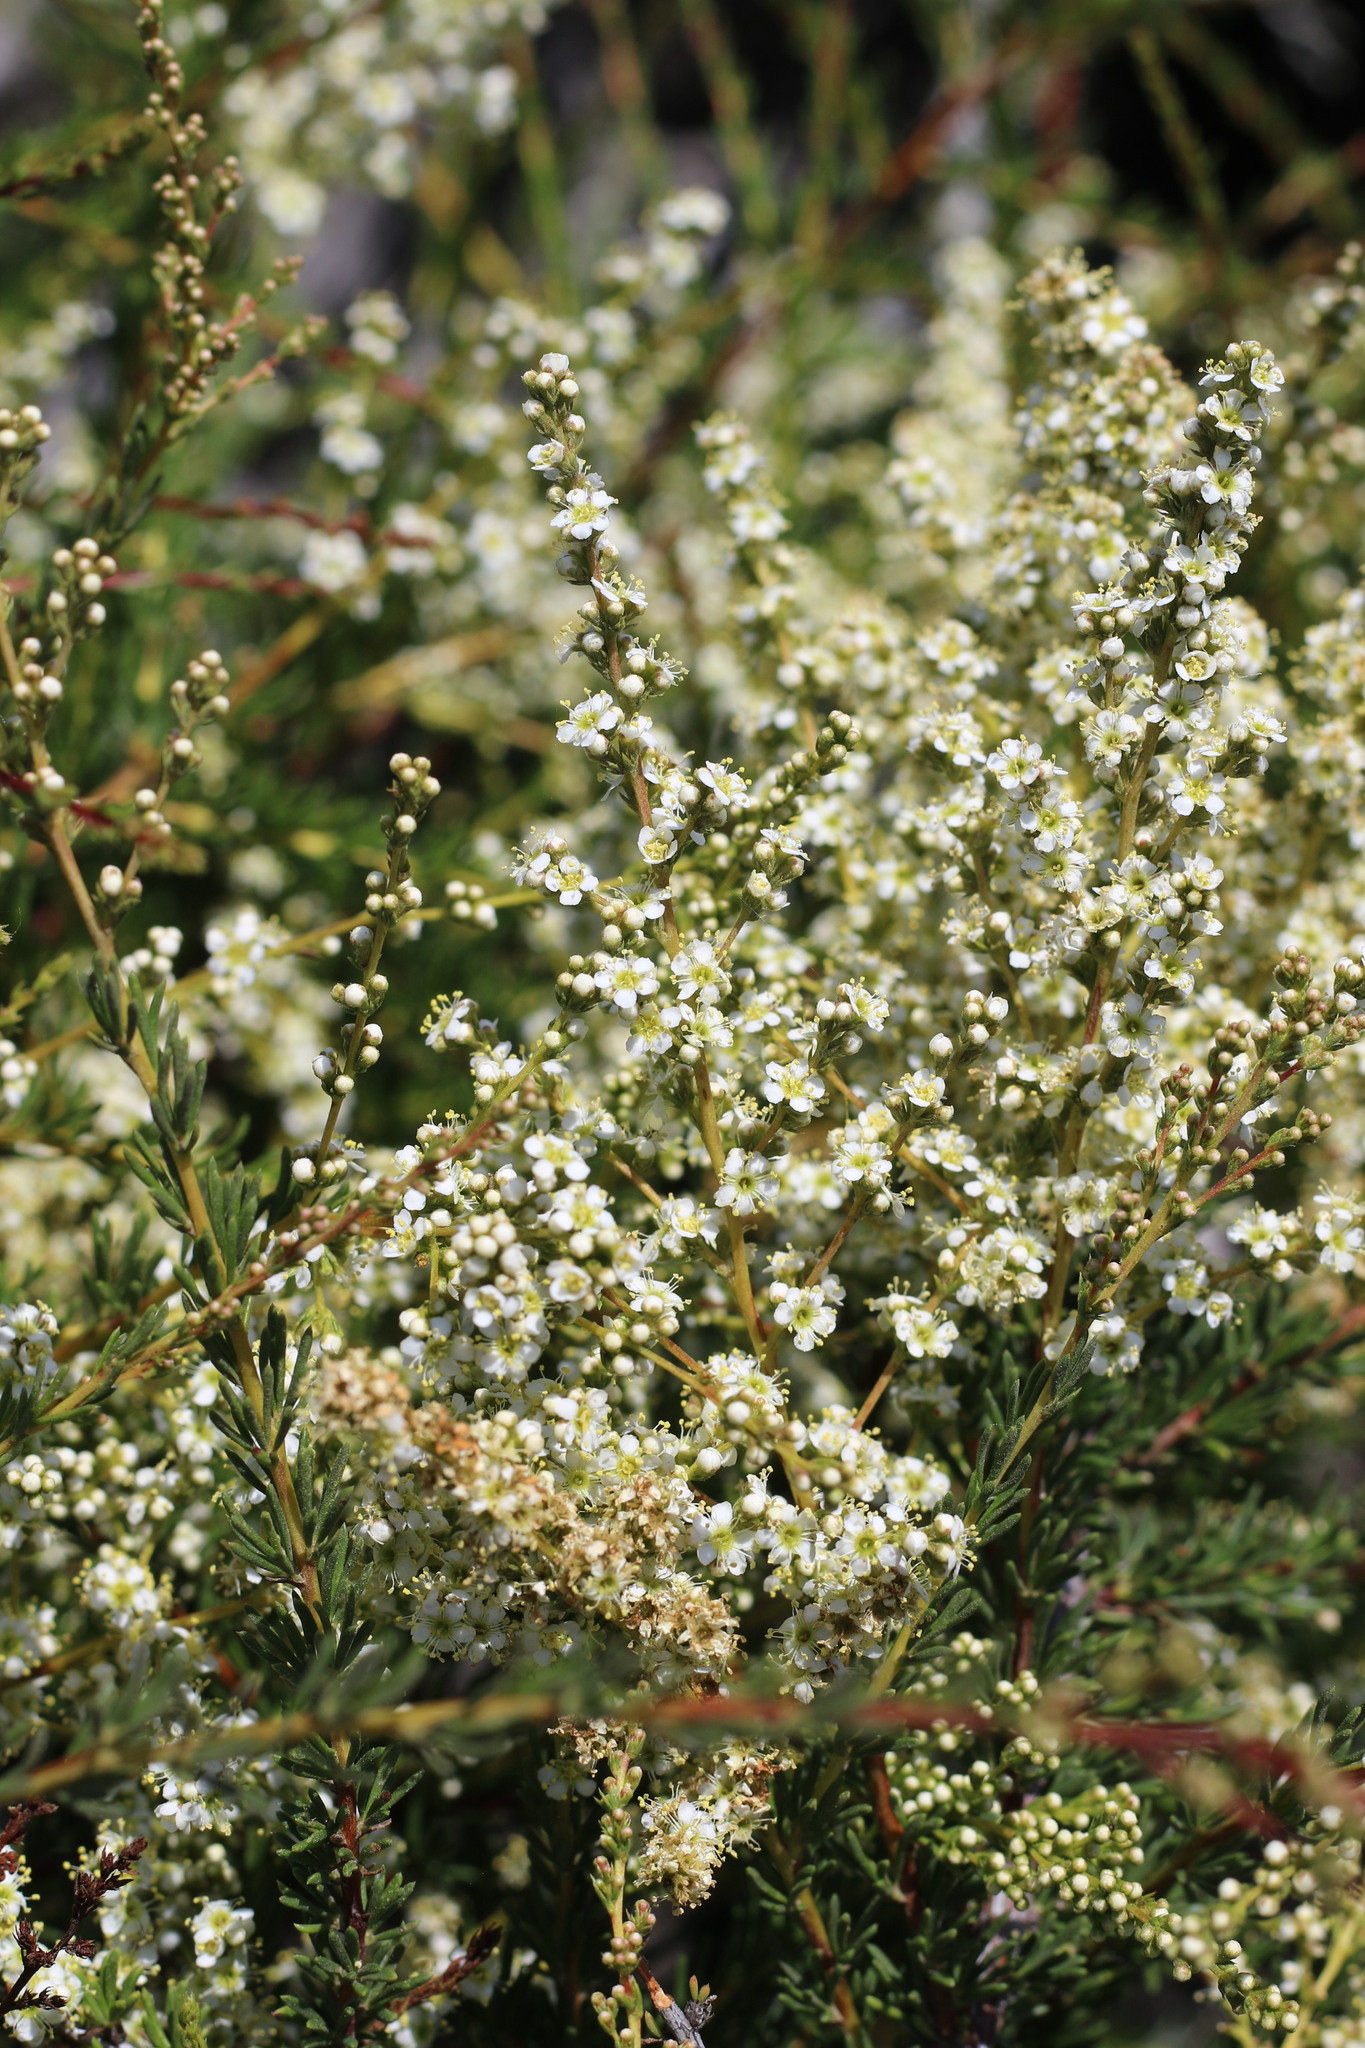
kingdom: Plantae
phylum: Tracheophyta
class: Magnoliopsida
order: Rosales
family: Rosaceae
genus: Adenostoma
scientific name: Adenostoma fasciculatum
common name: Chamise
